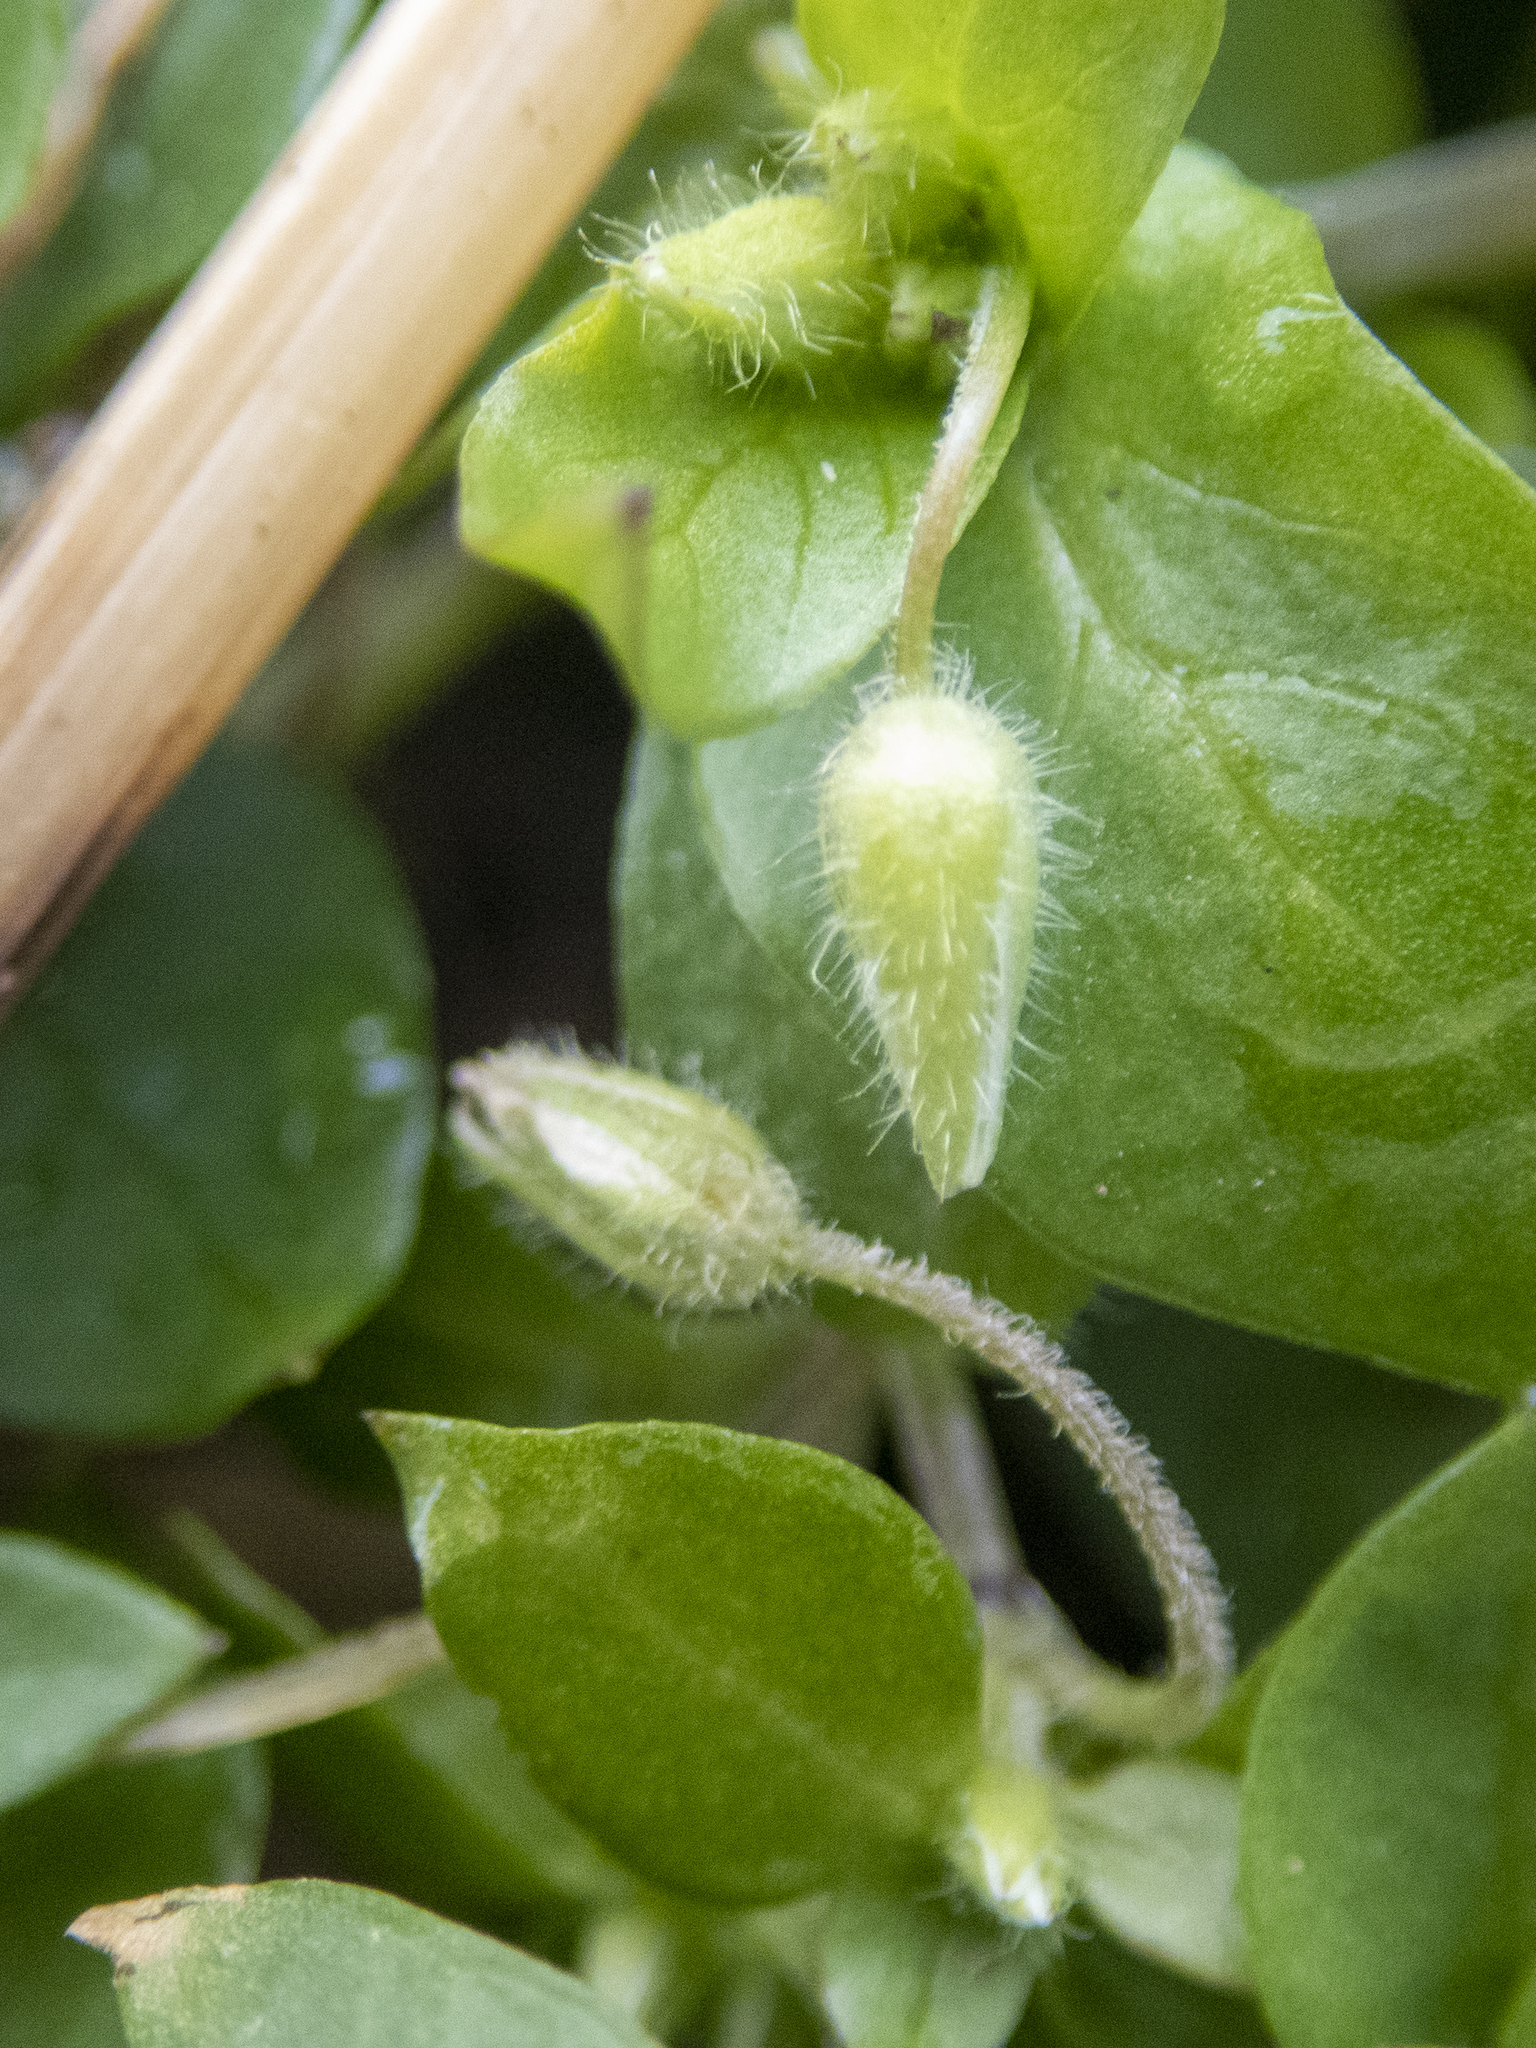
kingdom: Plantae
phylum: Tracheophyta
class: Magnoliopsida
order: Caryophyllales
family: Caryophyllaceae
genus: Stellaria
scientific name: Stellaria media
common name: Common chickweed
